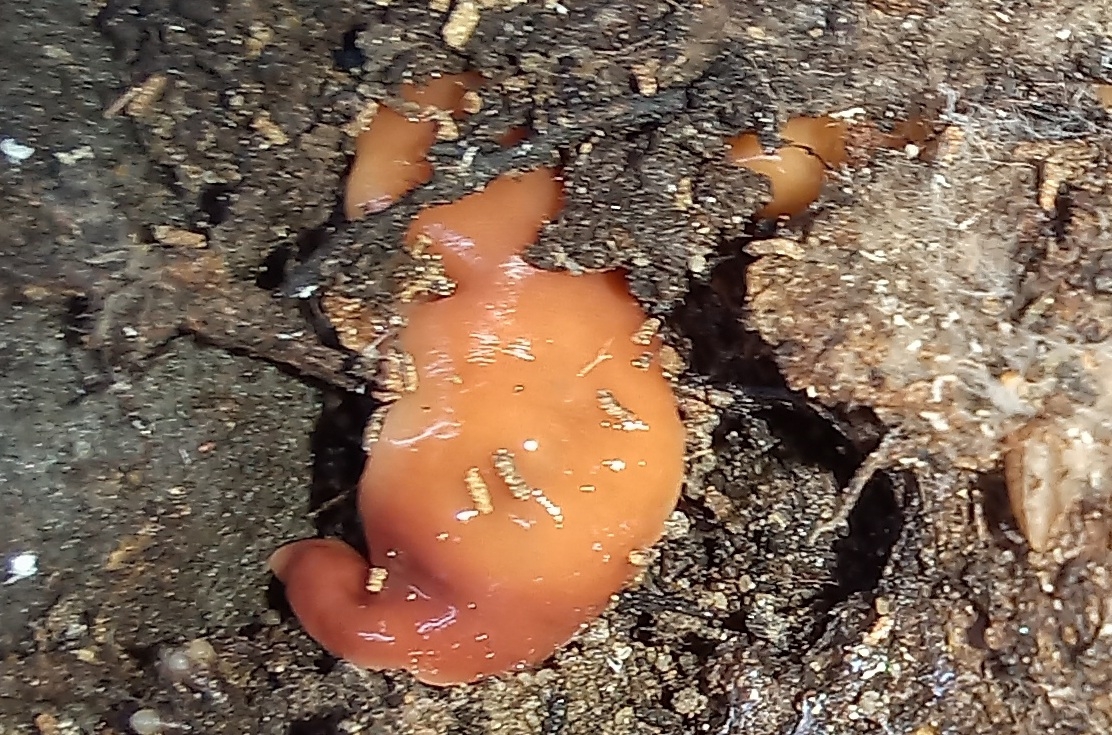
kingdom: Animalia
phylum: Platyhelminthes
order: Tricladida
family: Geoplanidae
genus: Australoplana
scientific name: Australoplana sanguinea
